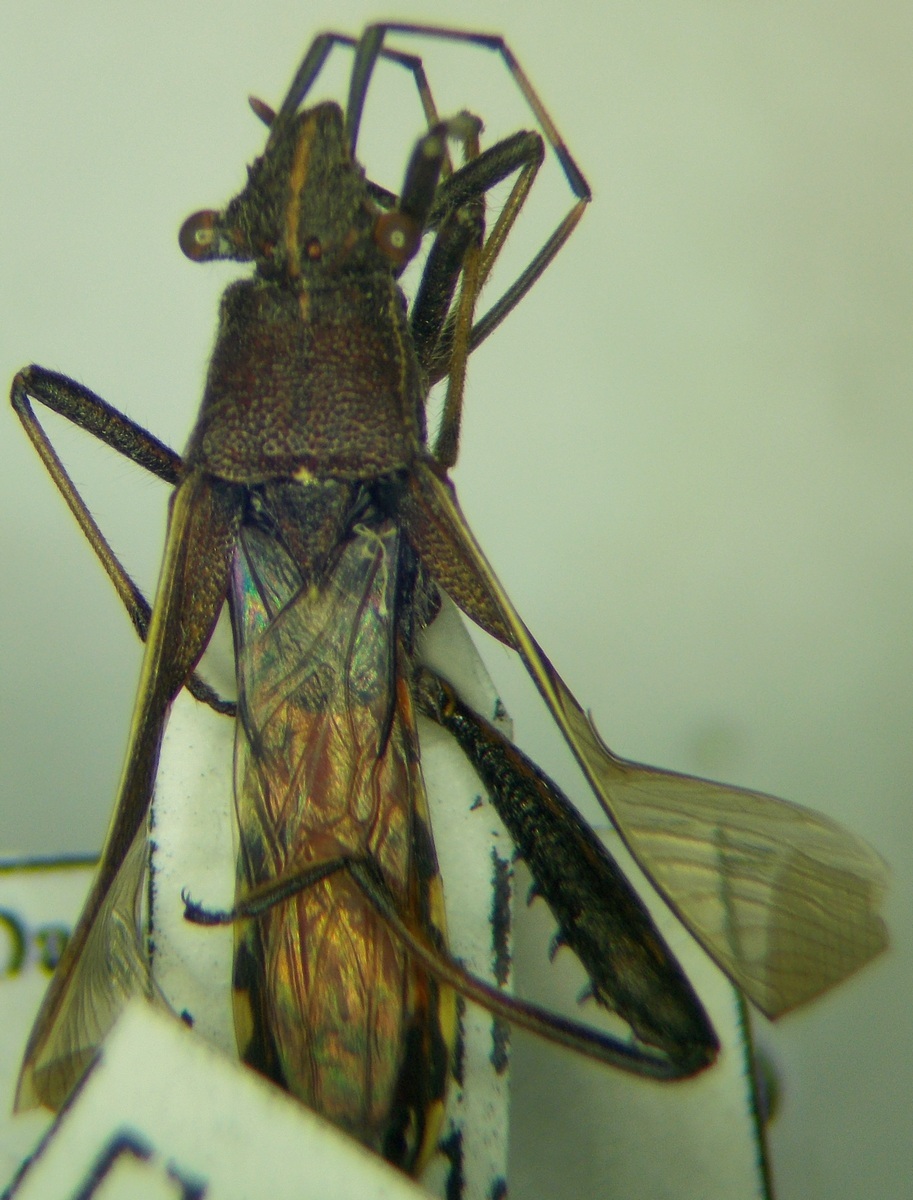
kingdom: Animalia
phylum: Arthropoda
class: Insecta
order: Hemiptera
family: Alydidae
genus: Camptopus
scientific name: Camptopus lateralis
